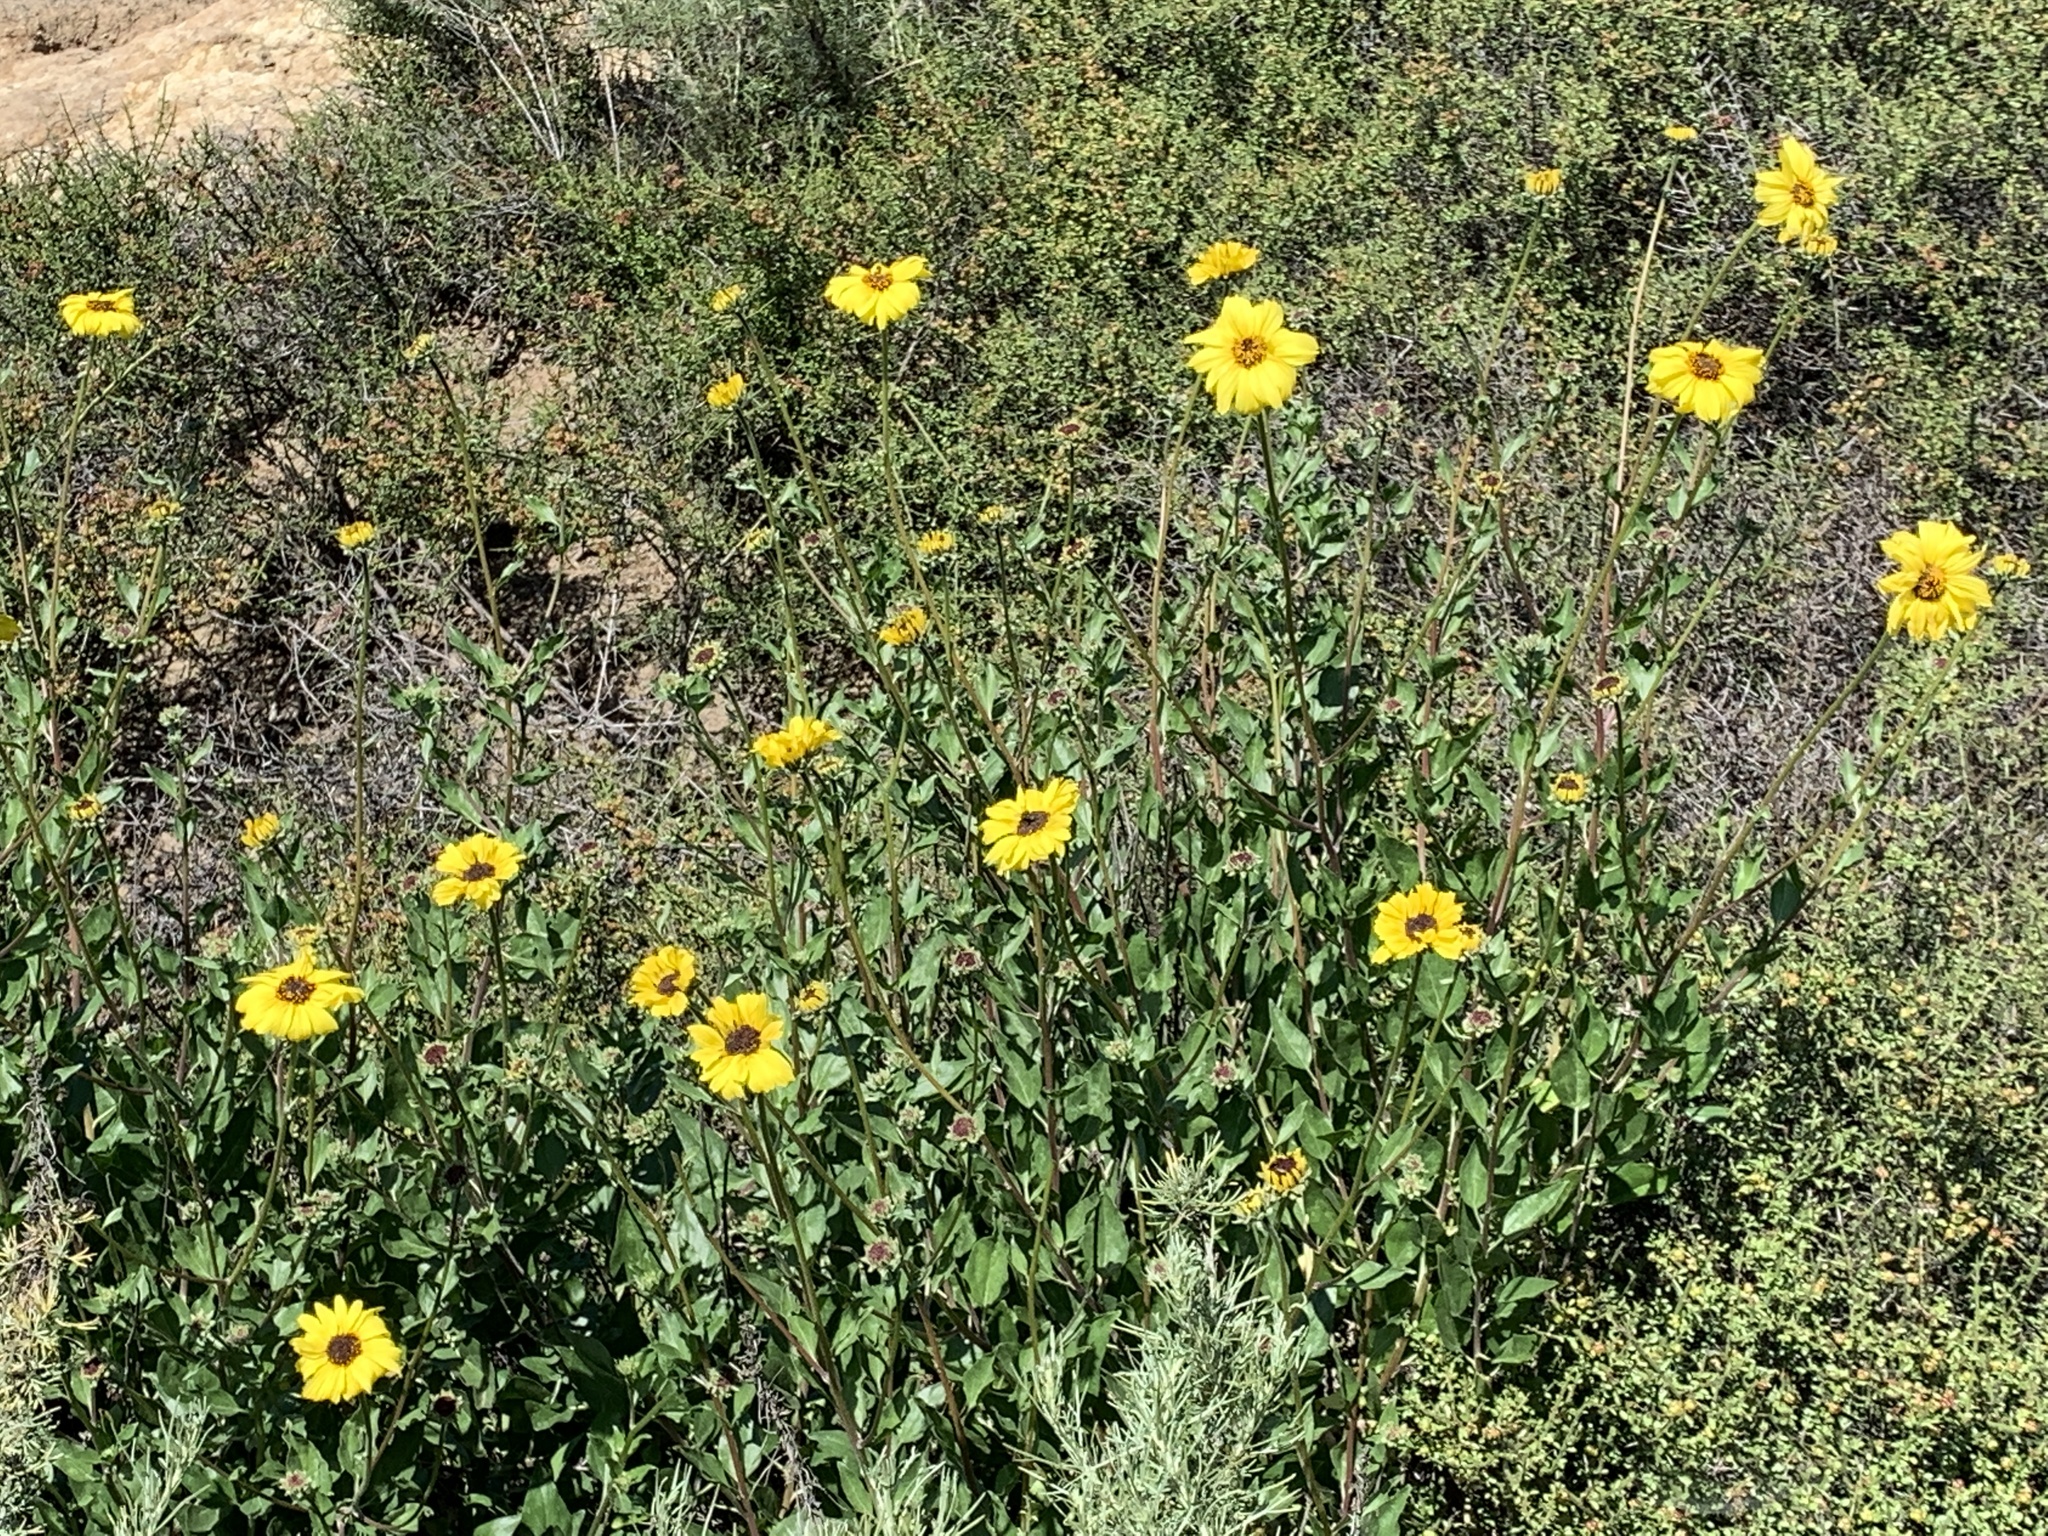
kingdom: Plantae
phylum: Tracheophyta
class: Magnoliopsida
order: Asterales
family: Asteraceae
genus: Encelia
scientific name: Encelia californica
